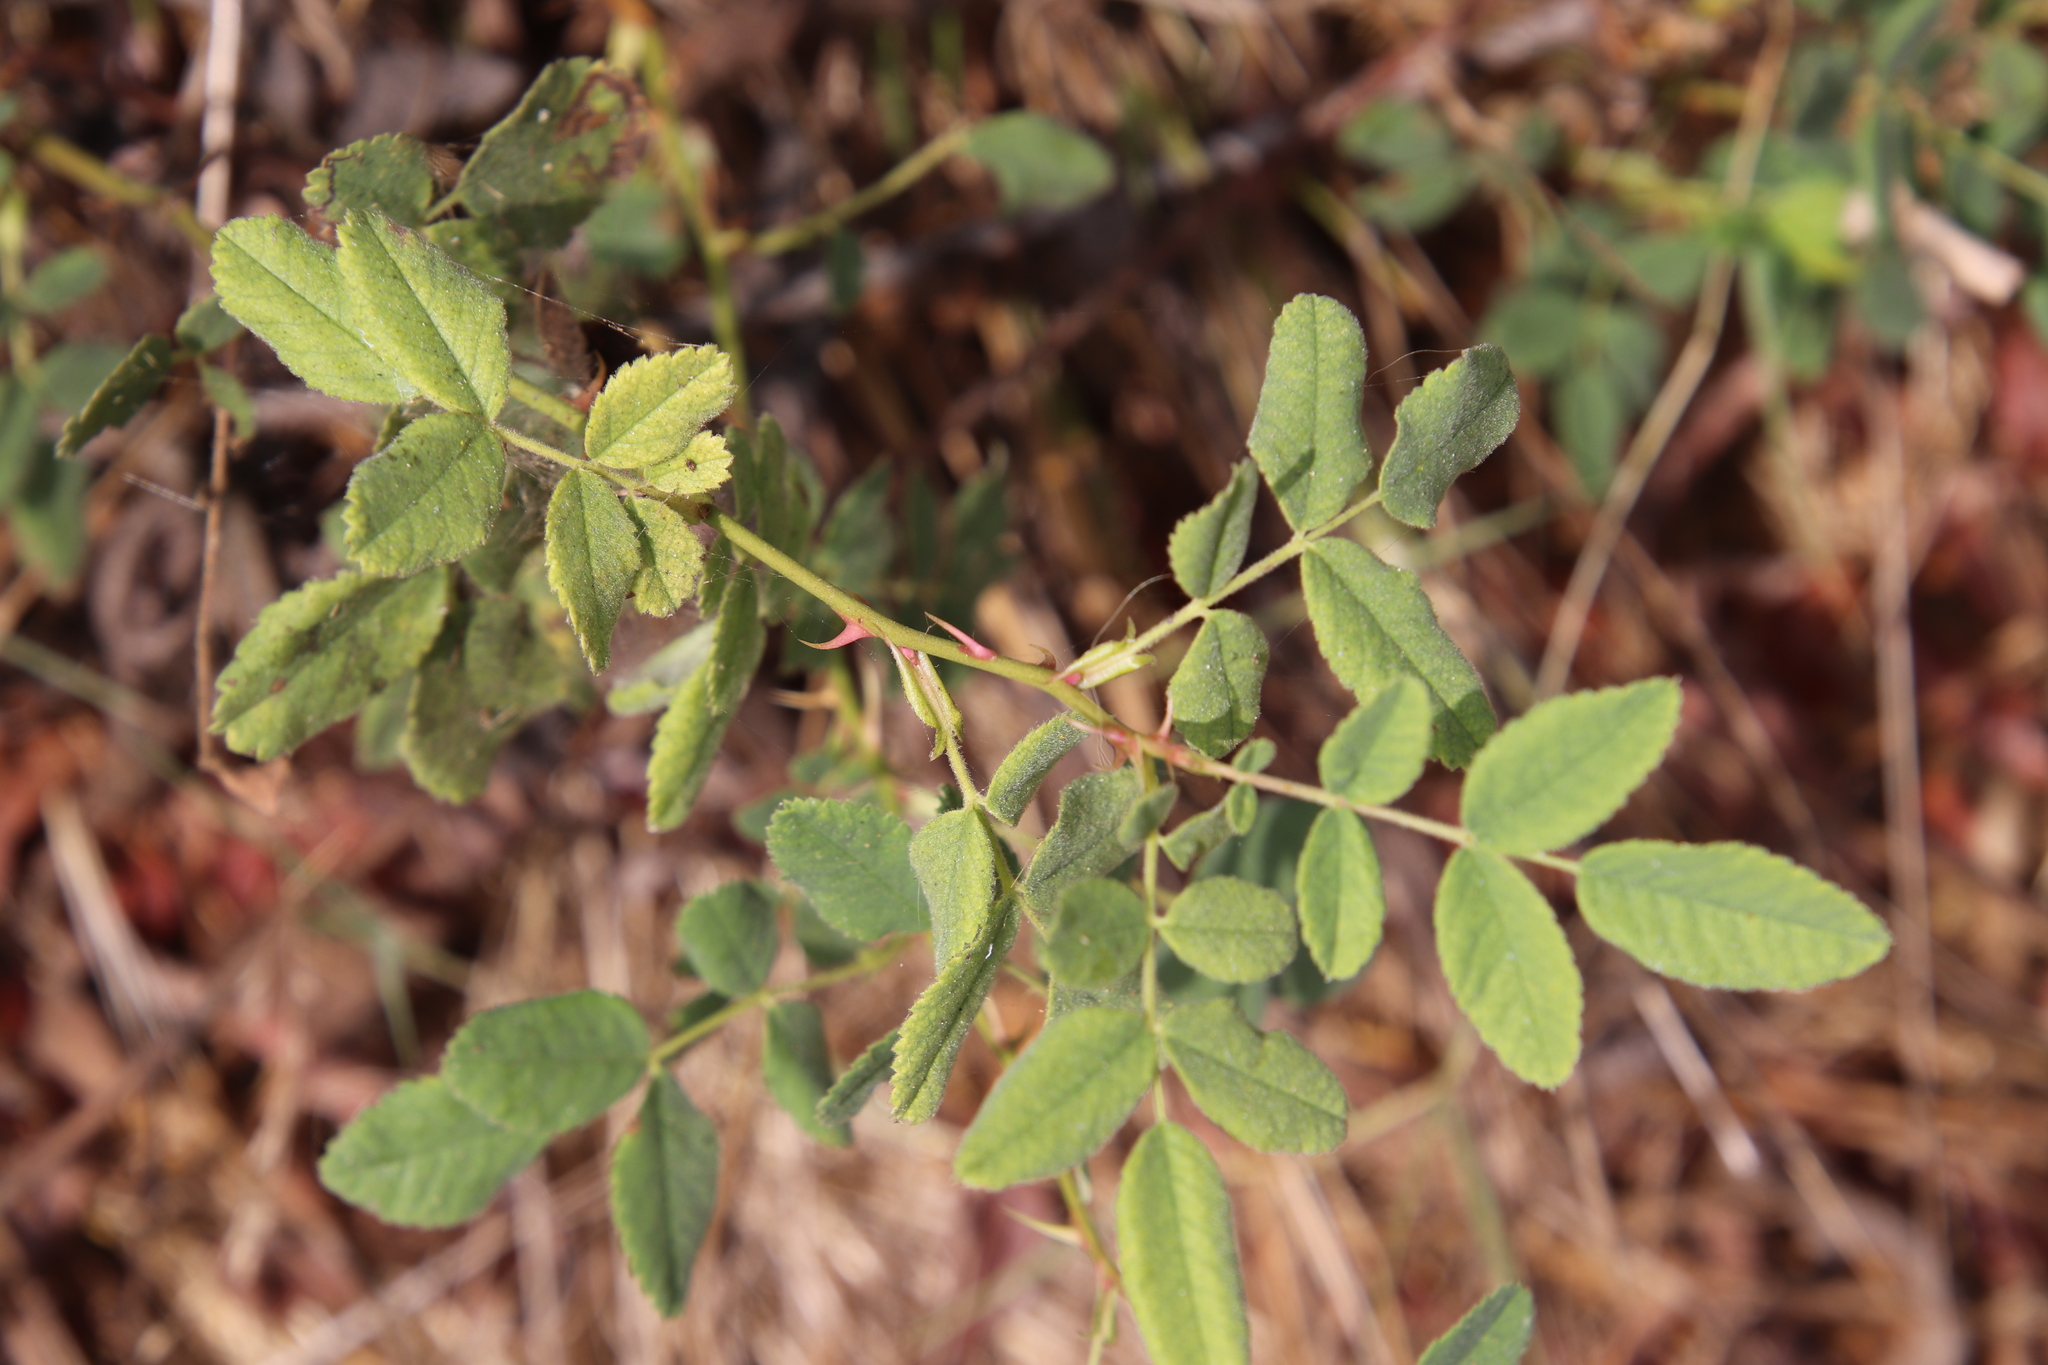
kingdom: Plantae
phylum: Tracheophyta
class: Magnoliopsida
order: Rosales
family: Rosaceae
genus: Rosa
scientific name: Rosa californica
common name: California rose
